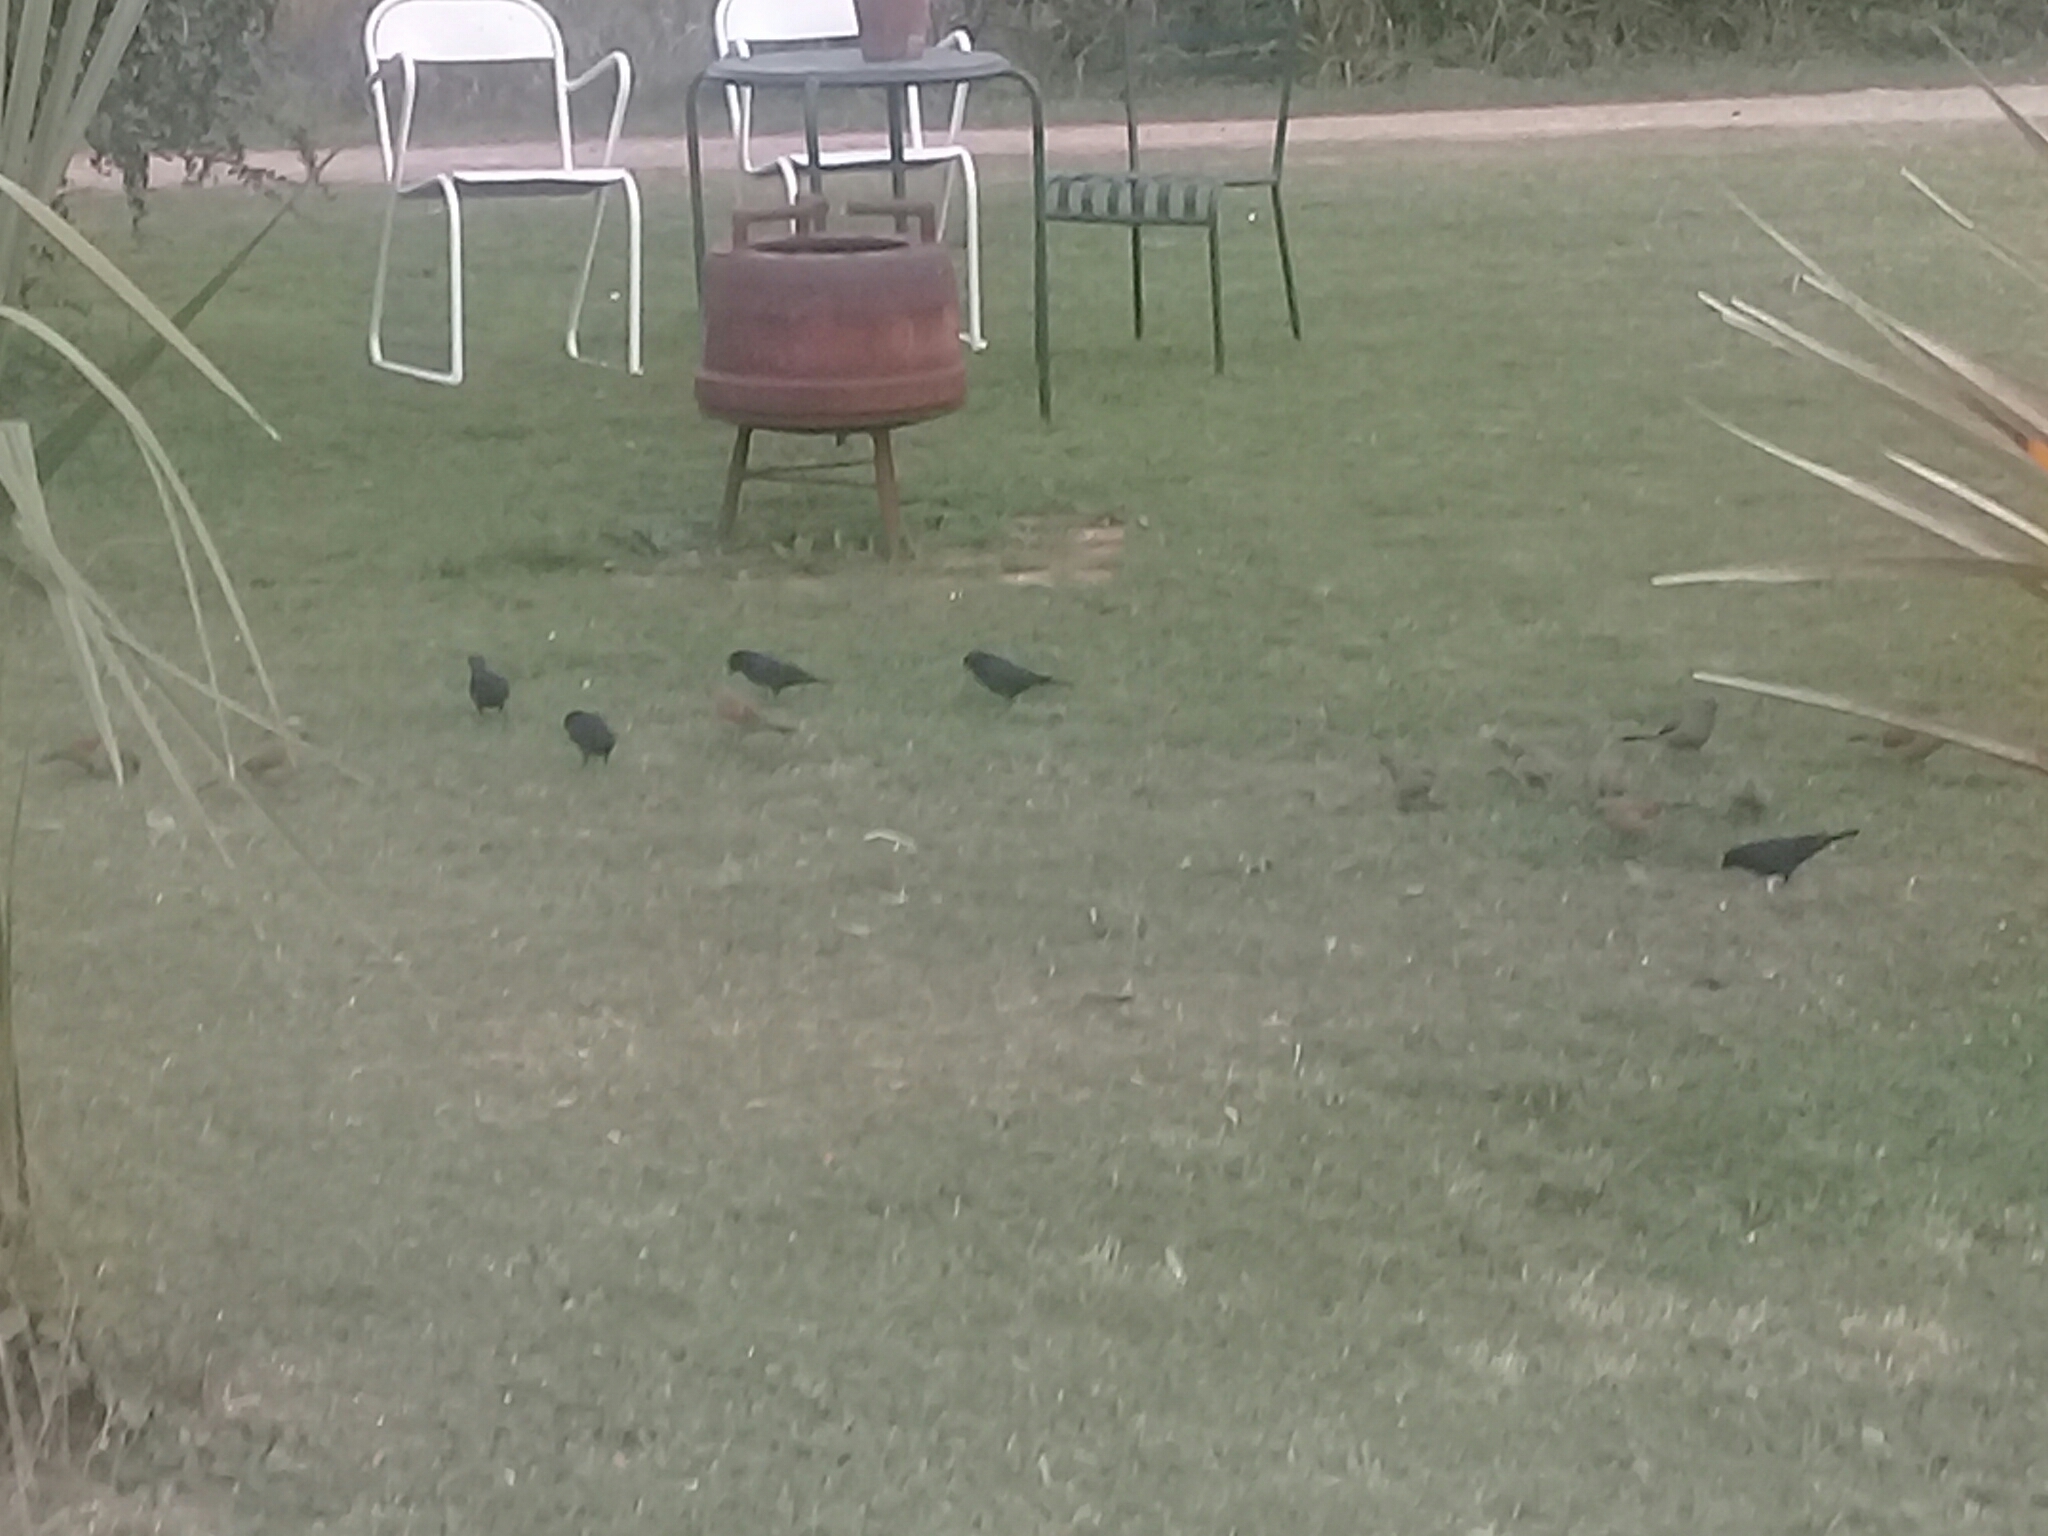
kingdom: Animalia
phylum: Chordata
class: Aves
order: Passeriformes
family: Icteridae
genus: Molothrus
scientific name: Molothrus bonariensis
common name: Shiny cowbird
